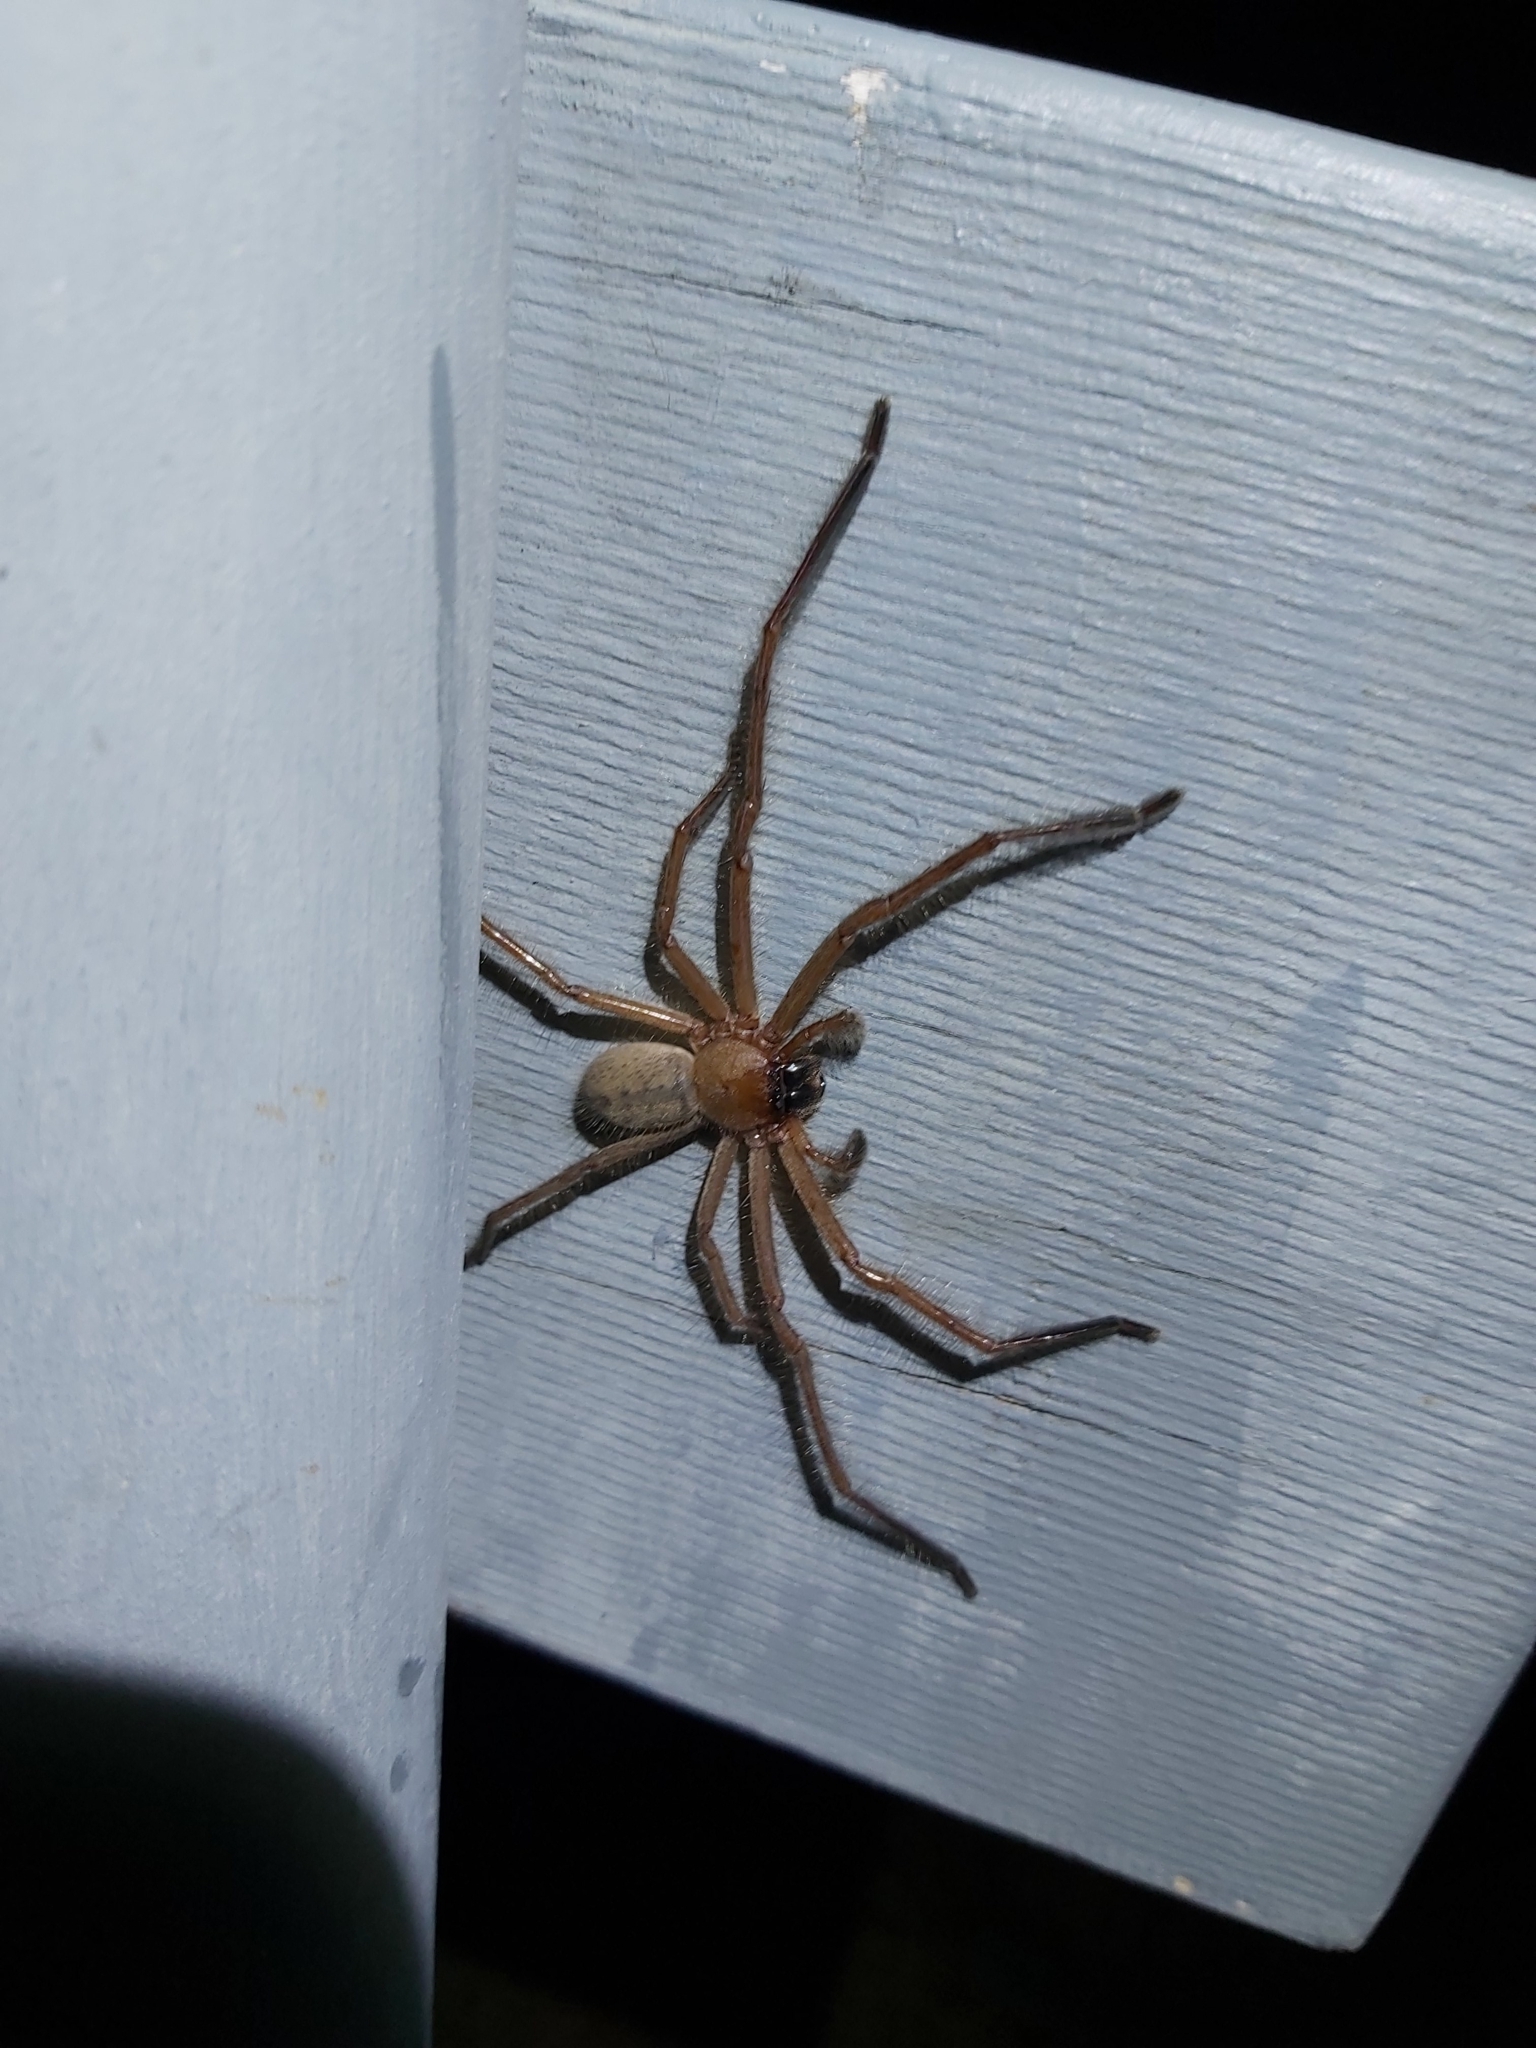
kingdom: Animalia
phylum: Arthropoda
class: Arachnida
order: Araneae
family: Sparassidae
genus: Delena
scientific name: Delena cancerides
